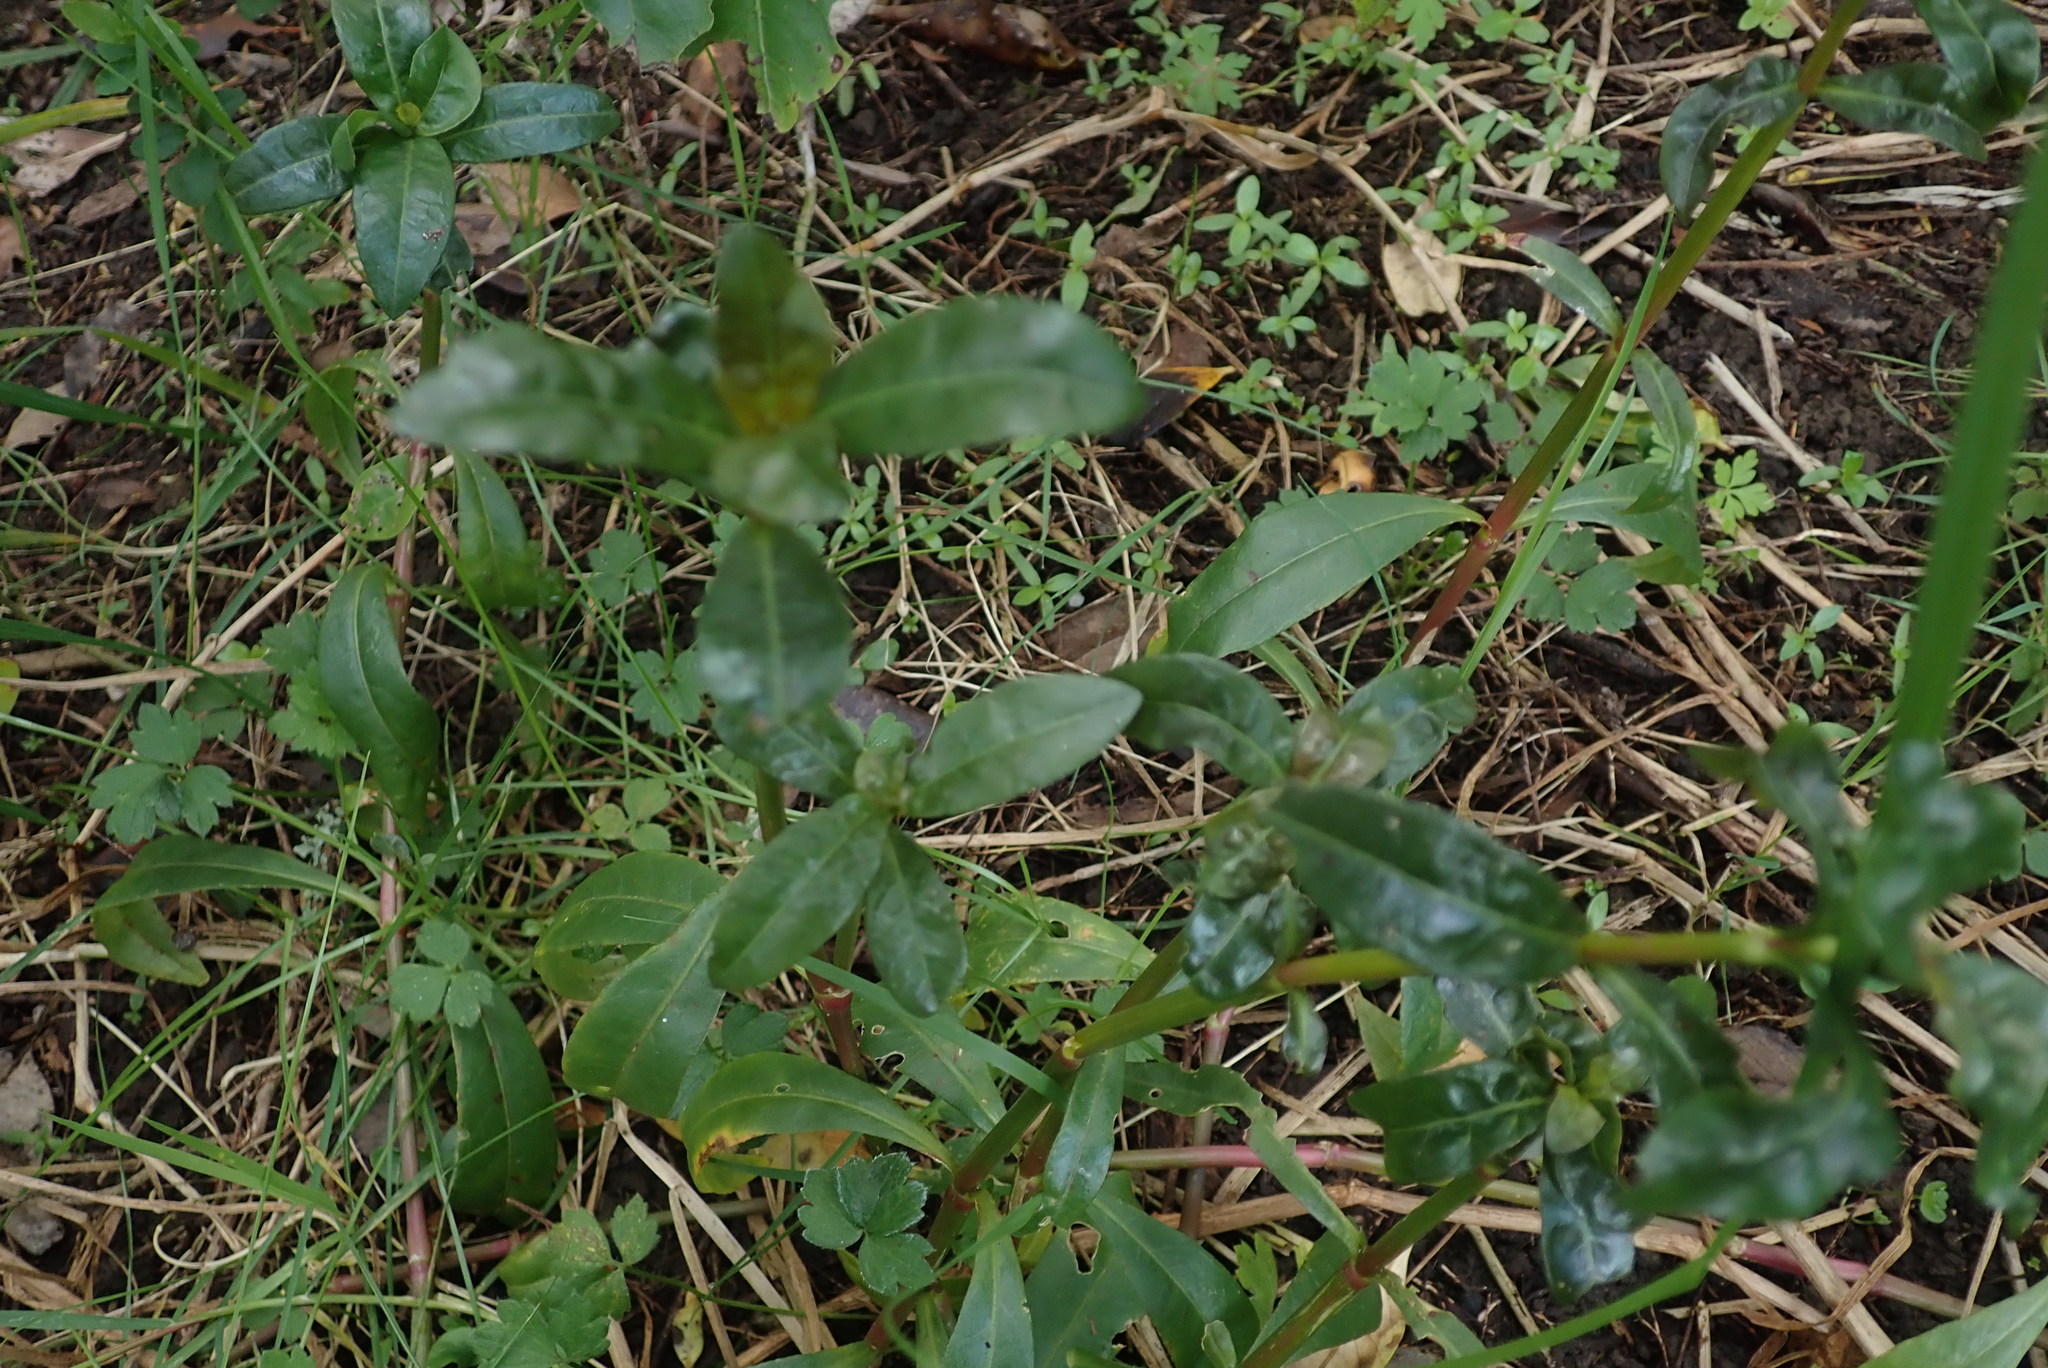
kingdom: Plantae
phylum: Tracheophyta
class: Magnoliopsida
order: Caryophyllales
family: Amaranthaceae
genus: Alternanthera
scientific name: Alternanthera philoxeroides
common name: Alligatorweed
